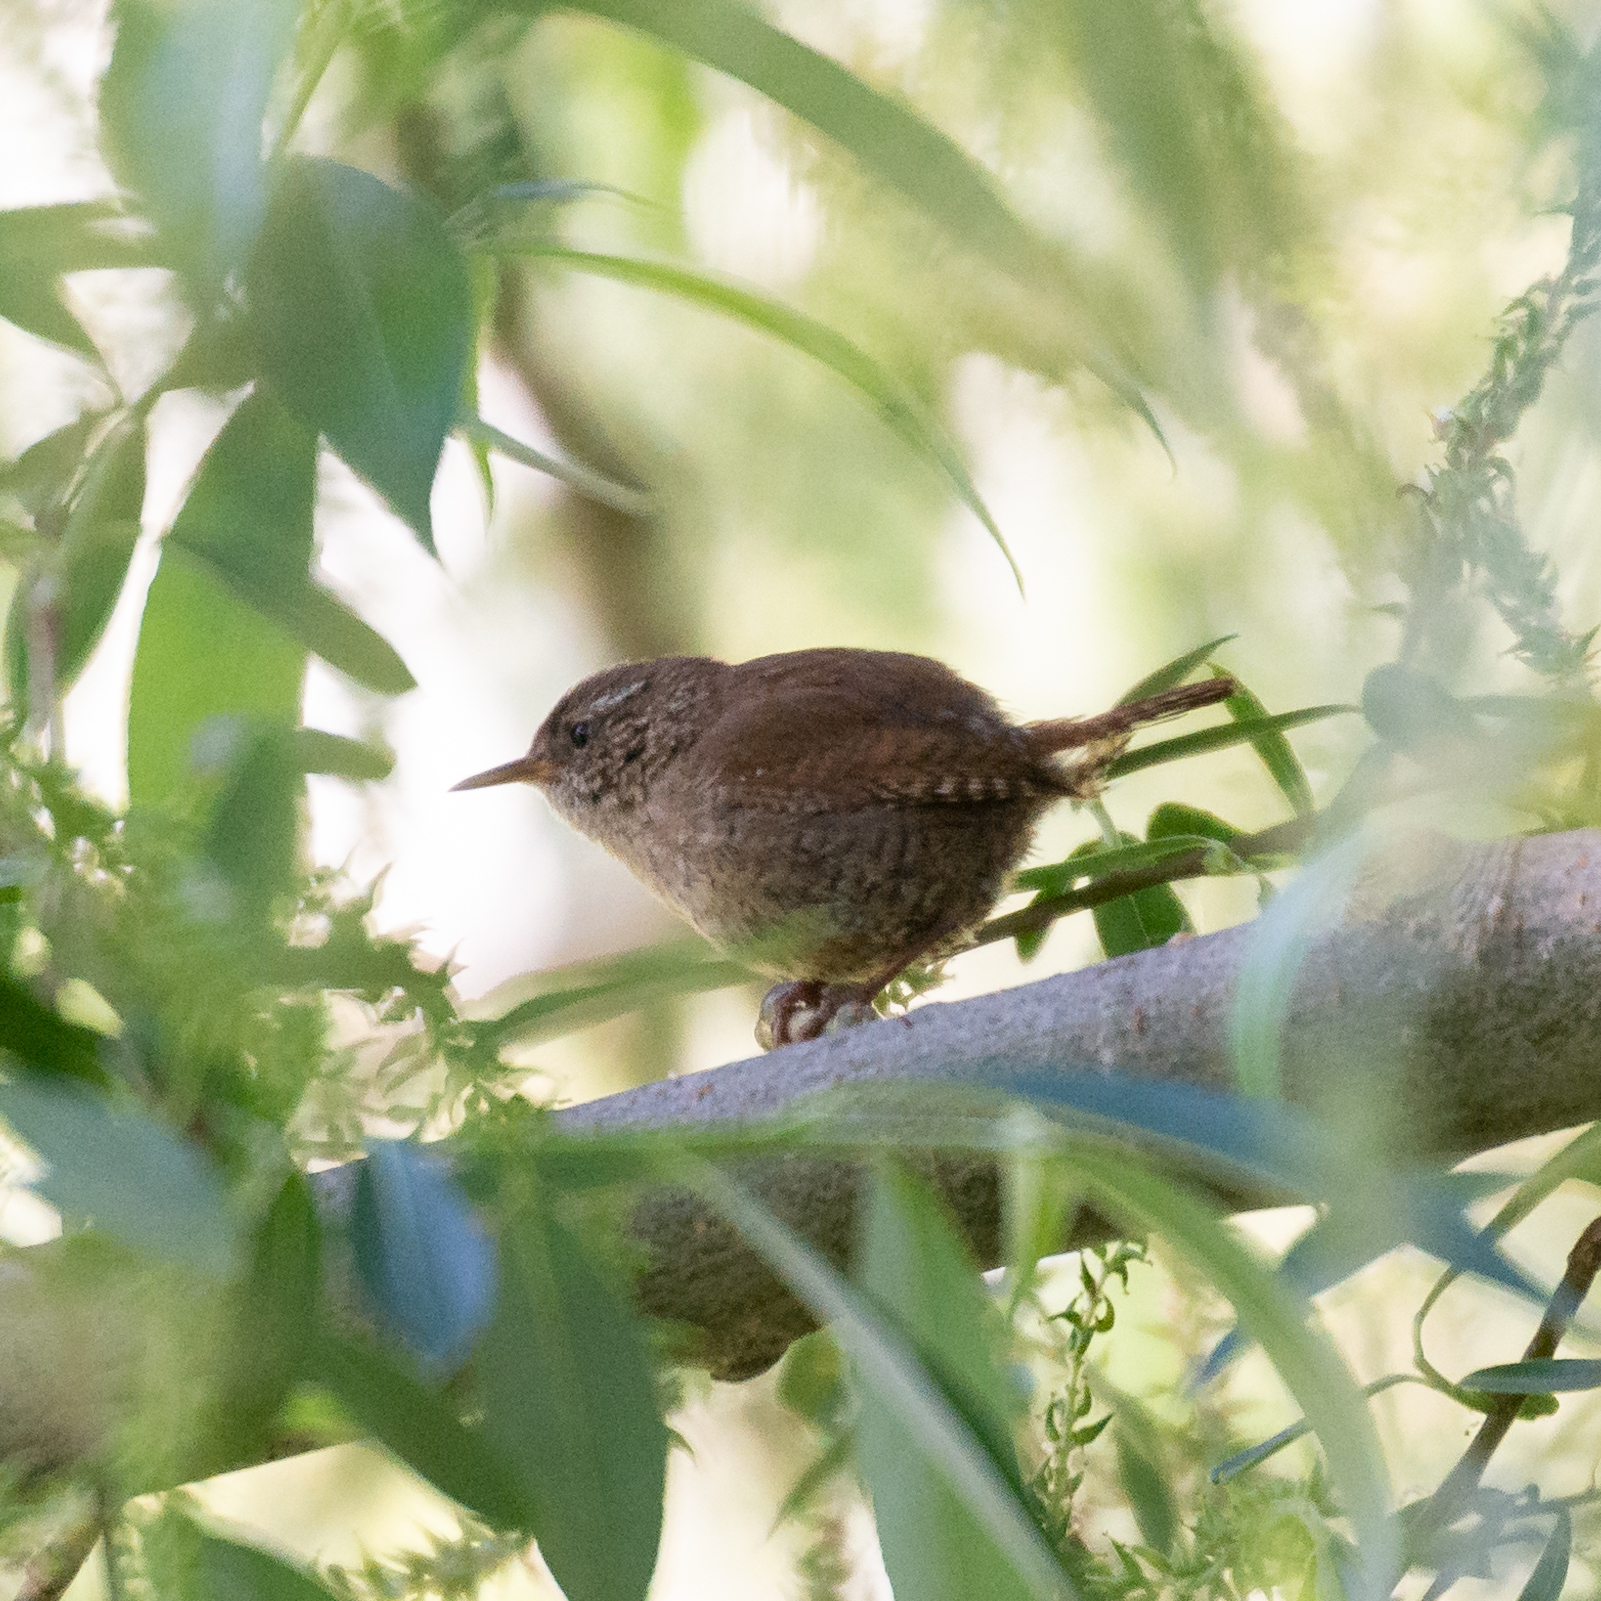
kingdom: Animalia
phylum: Chordata
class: Aves
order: Passeriformes
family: Troglodytidae
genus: Troglodytes
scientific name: Troglodytes troglodytes
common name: Eurasian wren
